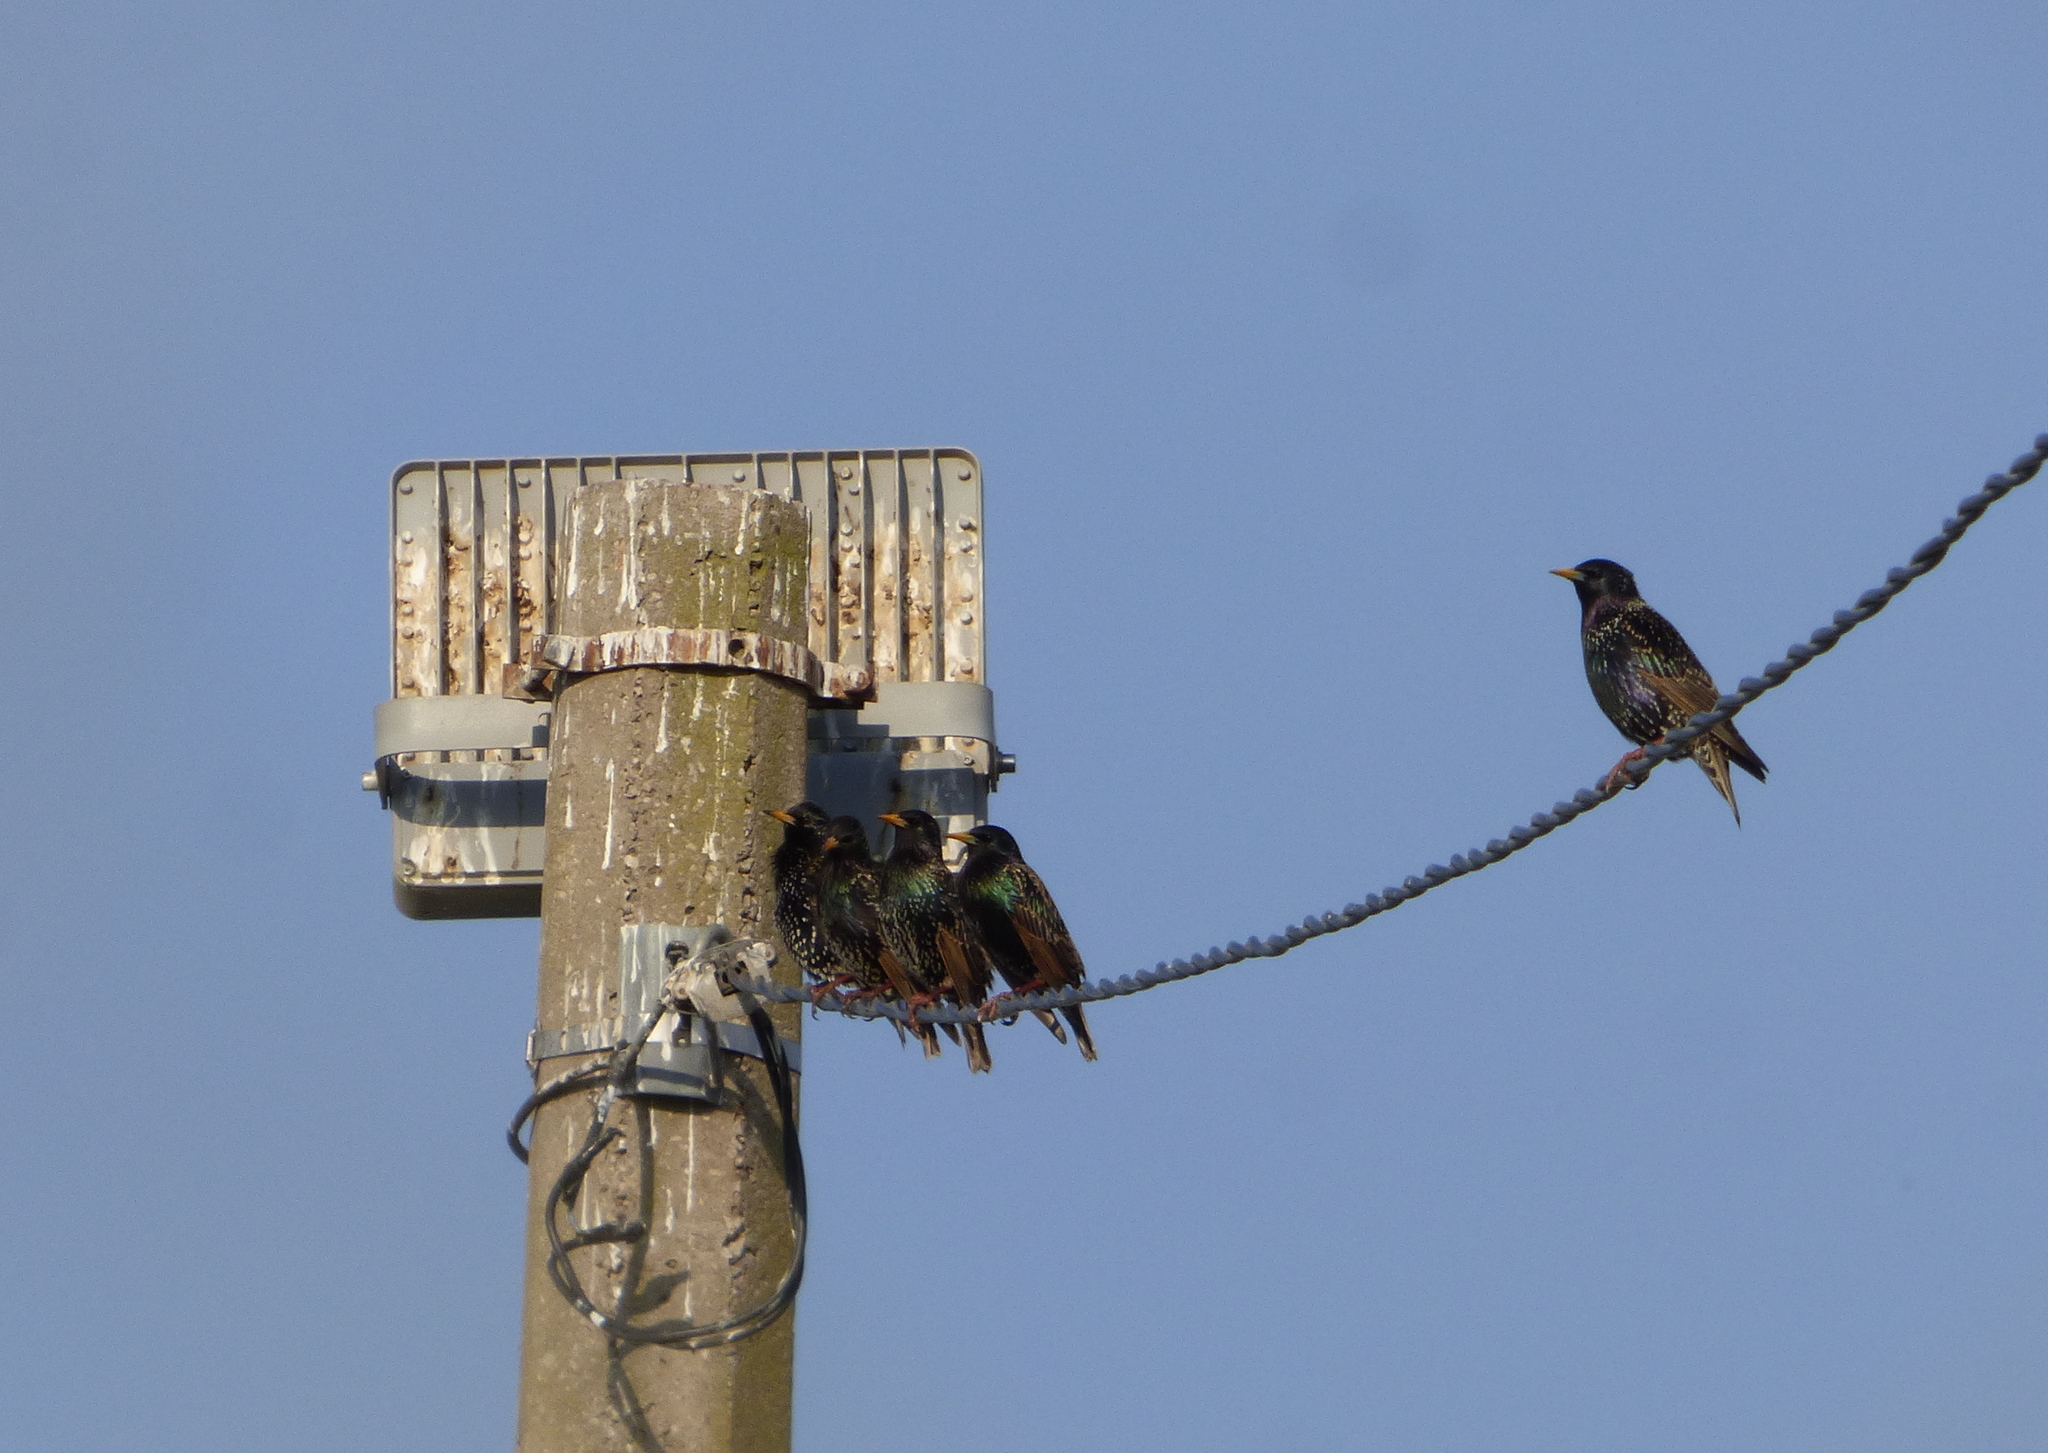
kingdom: Animalia
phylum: Chordata
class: Aves
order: Passeriformes
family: Sturnidae
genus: Sturnus
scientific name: Sturnus vulgaris
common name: Common starling
